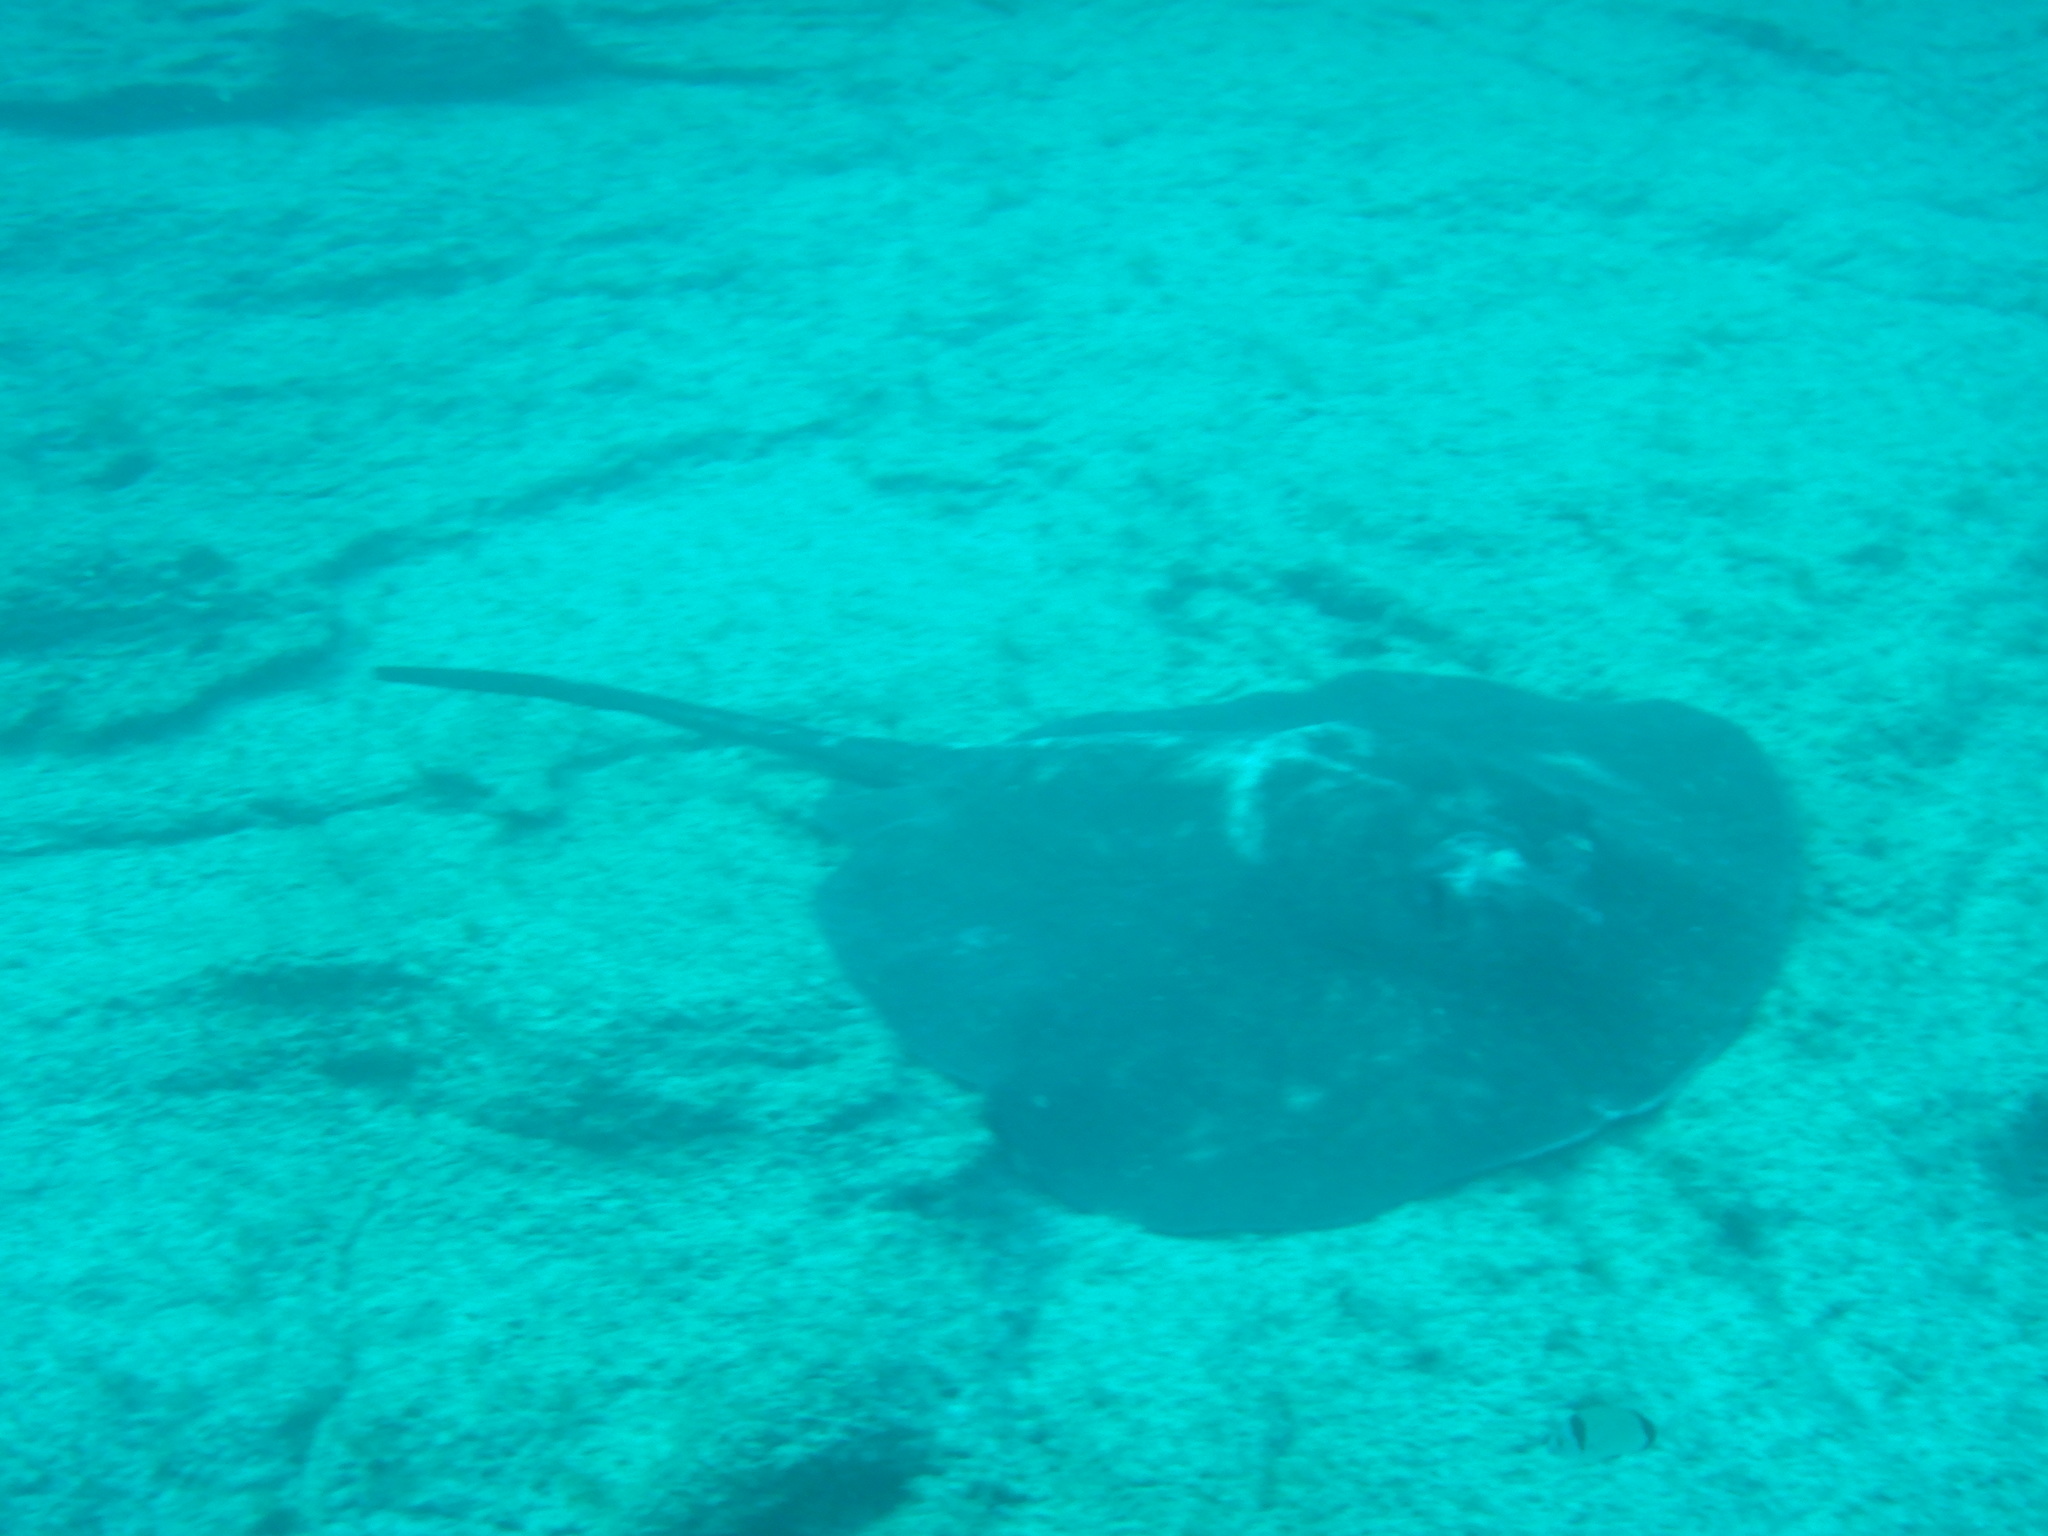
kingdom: Animalia
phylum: Chordata
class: Elasmobranchii
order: Myliobatiformes
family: Dasyatidae
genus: Taeniura
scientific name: Taeniura grabata
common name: Round stingray
